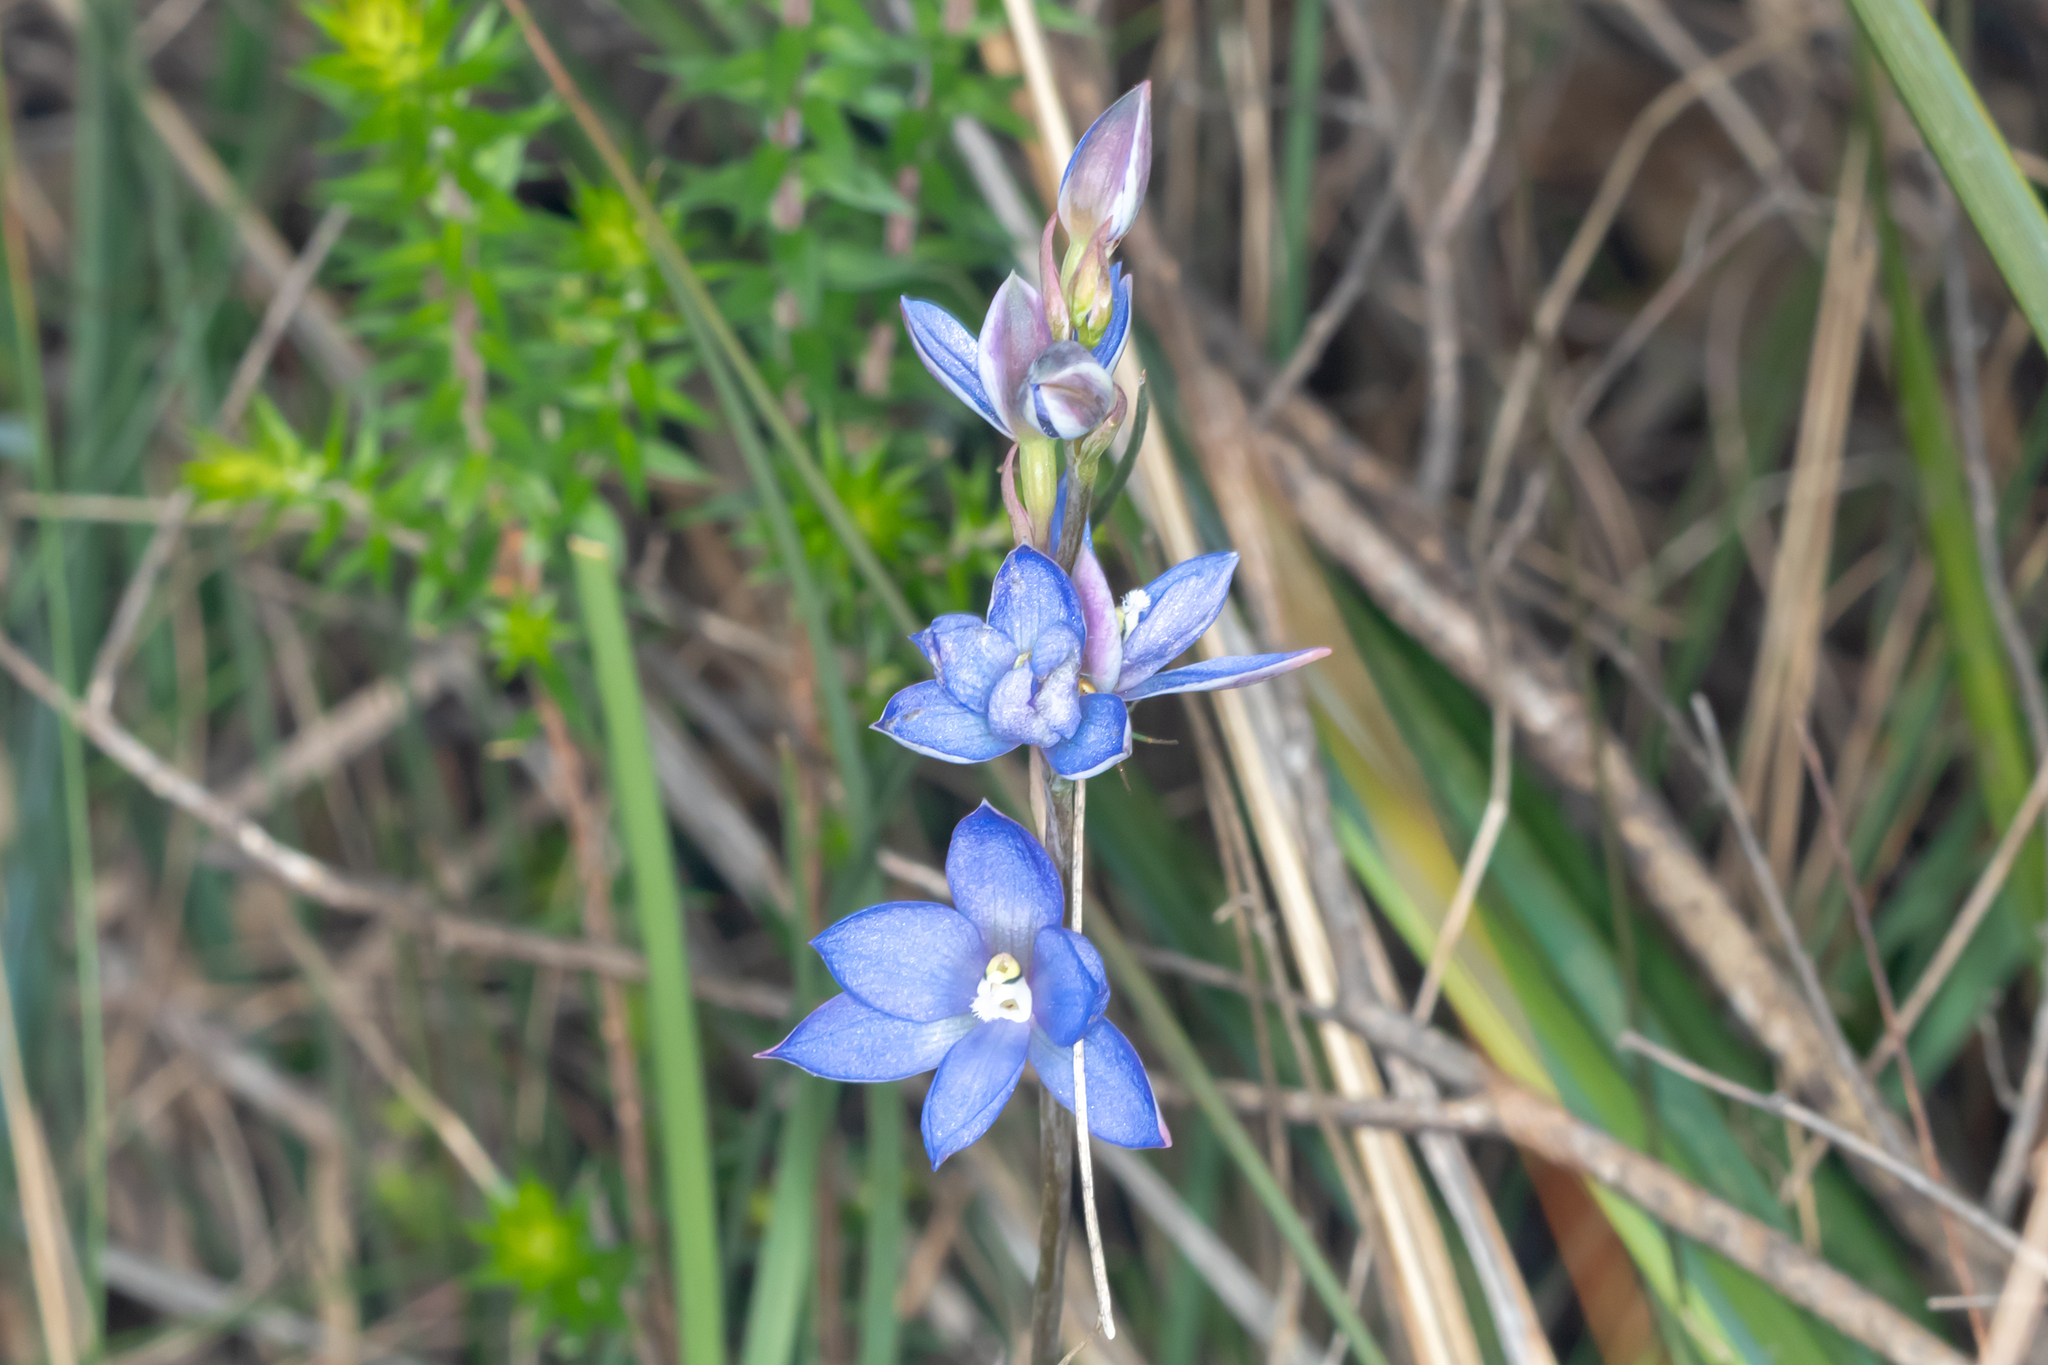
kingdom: Plantae
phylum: Tracheophyta
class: Liliopsida
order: Asparagales
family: Orchidaceae
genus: Thelymitra
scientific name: Thelymitra media
